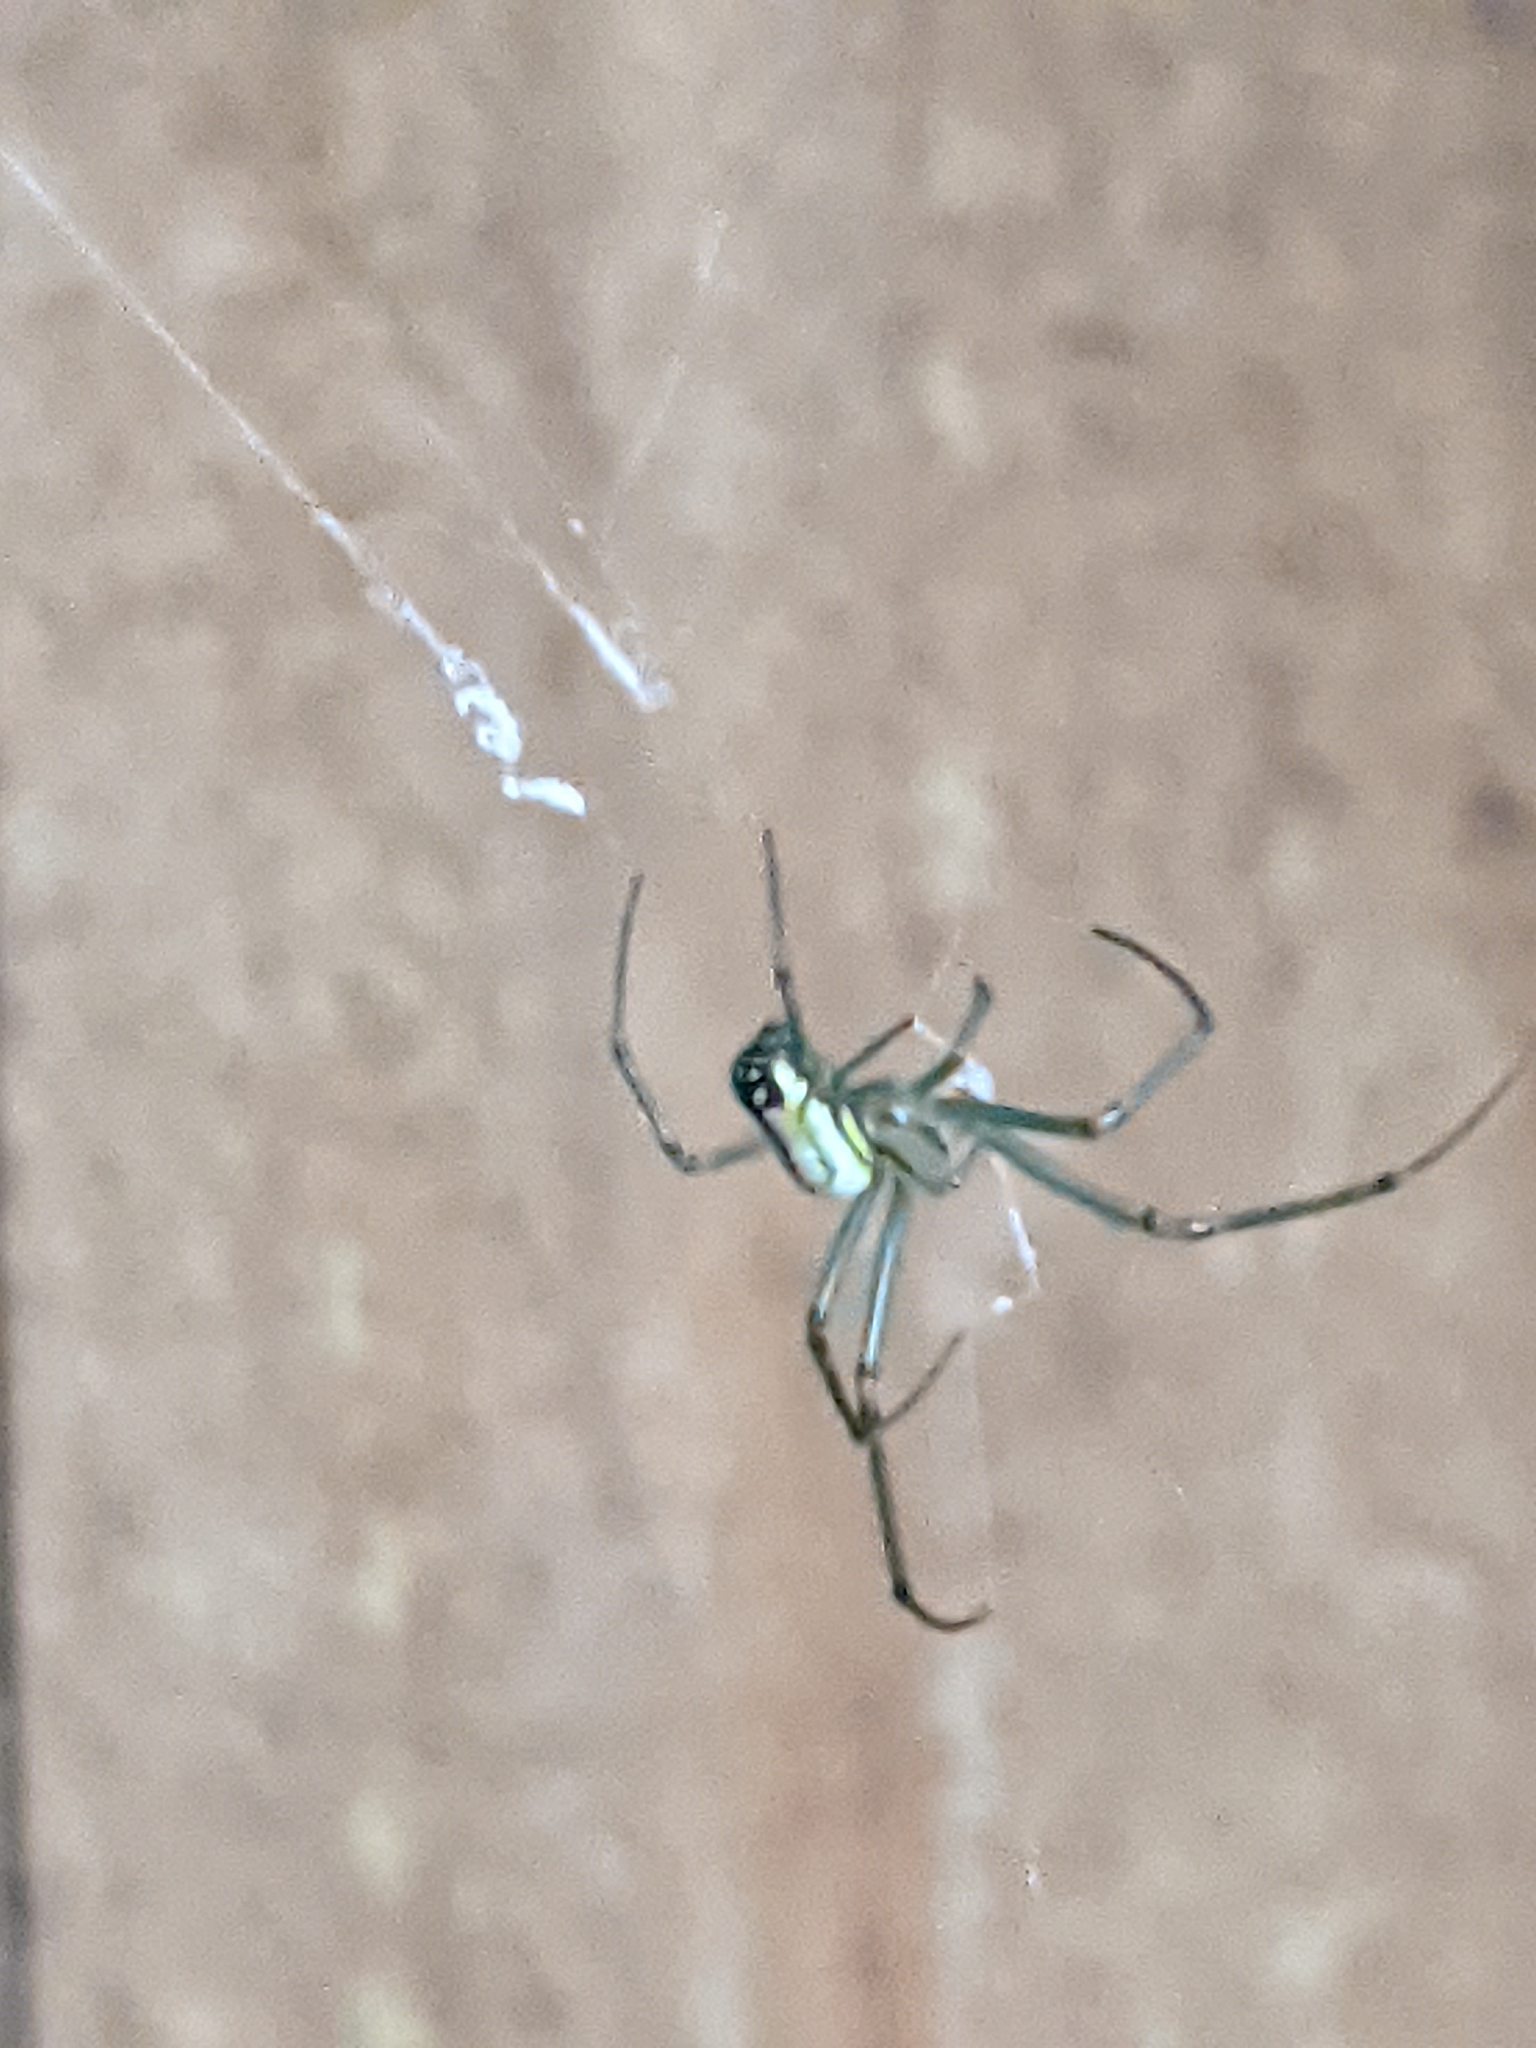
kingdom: Animalia
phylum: Arthropoda
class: Arachnida
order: Araneae
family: Tetragnathidae
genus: Leucauge
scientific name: Leucauge venusta
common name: Longjawed orb weavers
